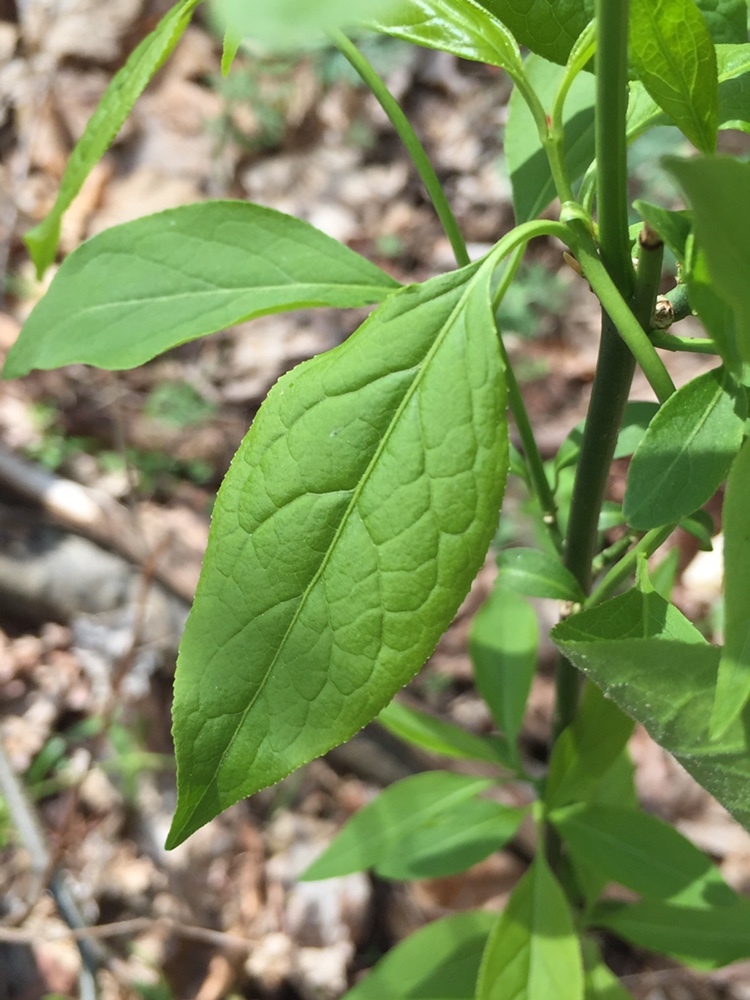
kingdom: Plantae
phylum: Tracheophyta
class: Magnoliopsida
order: Celastrales
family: Celastraceae
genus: Euonymus
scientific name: Euonymus atropurpureus
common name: Eastern wahoo
